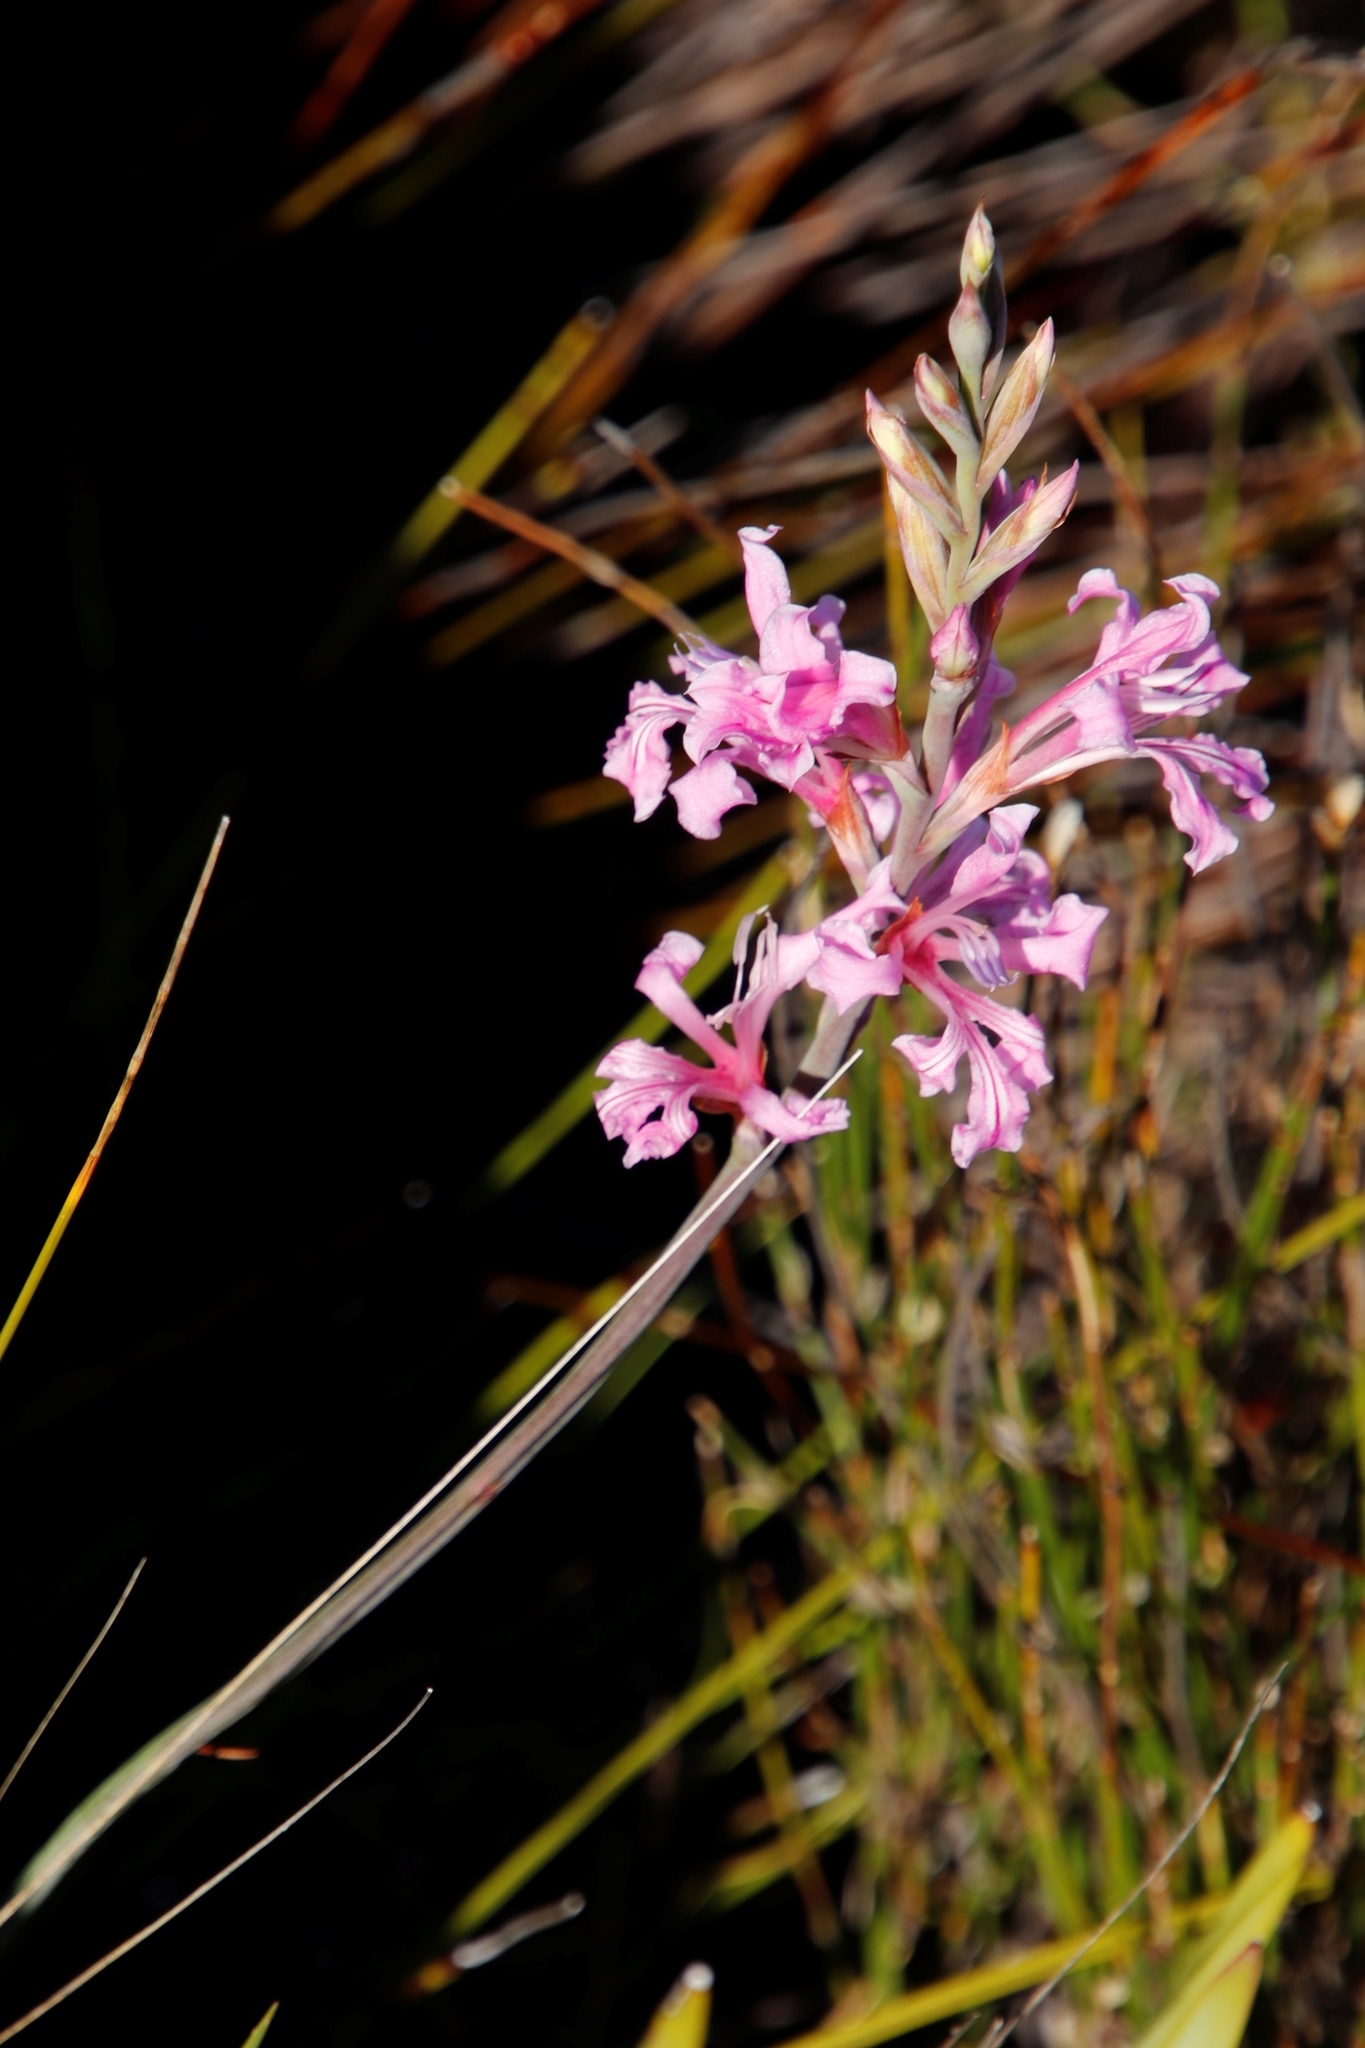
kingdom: Plantae
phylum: Tracheophyta
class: Liliopsida
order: Asparagales
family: Iridaceae
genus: Tritoniopsis
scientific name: Tritoniopsis lata
